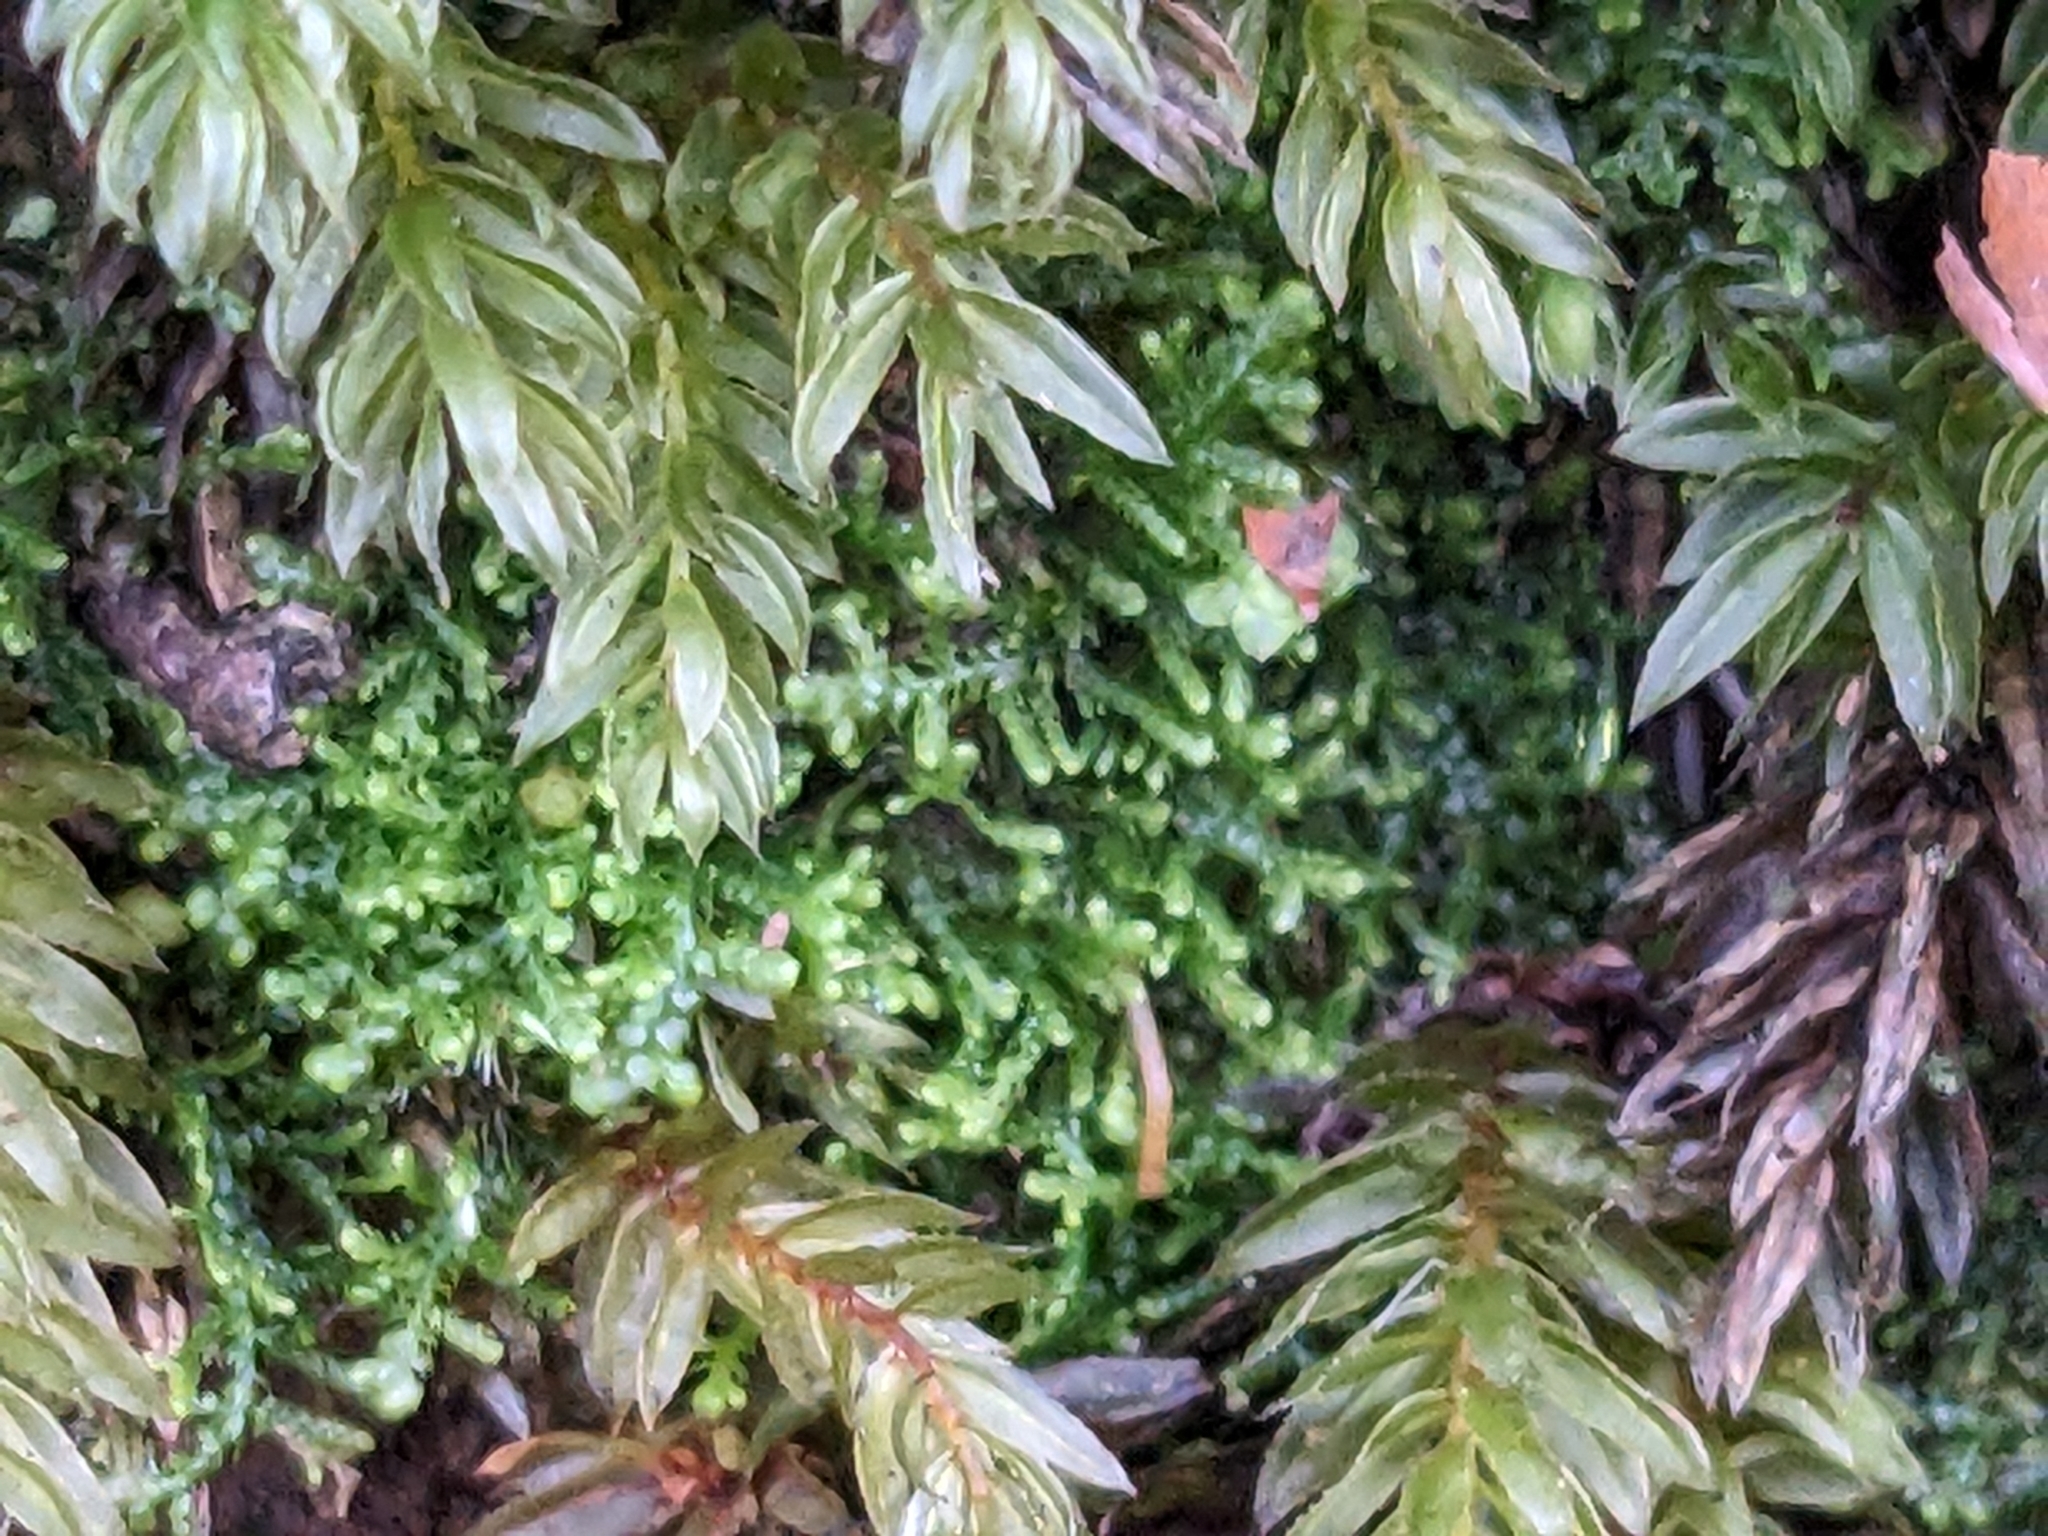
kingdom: Plantae
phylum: Marchantiophyta
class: Jungermanniopsida
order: Jungermanniales
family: Lepidoziaceae
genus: Lepidozia
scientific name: Lepidozia reptans
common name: Creeping fingerwort
